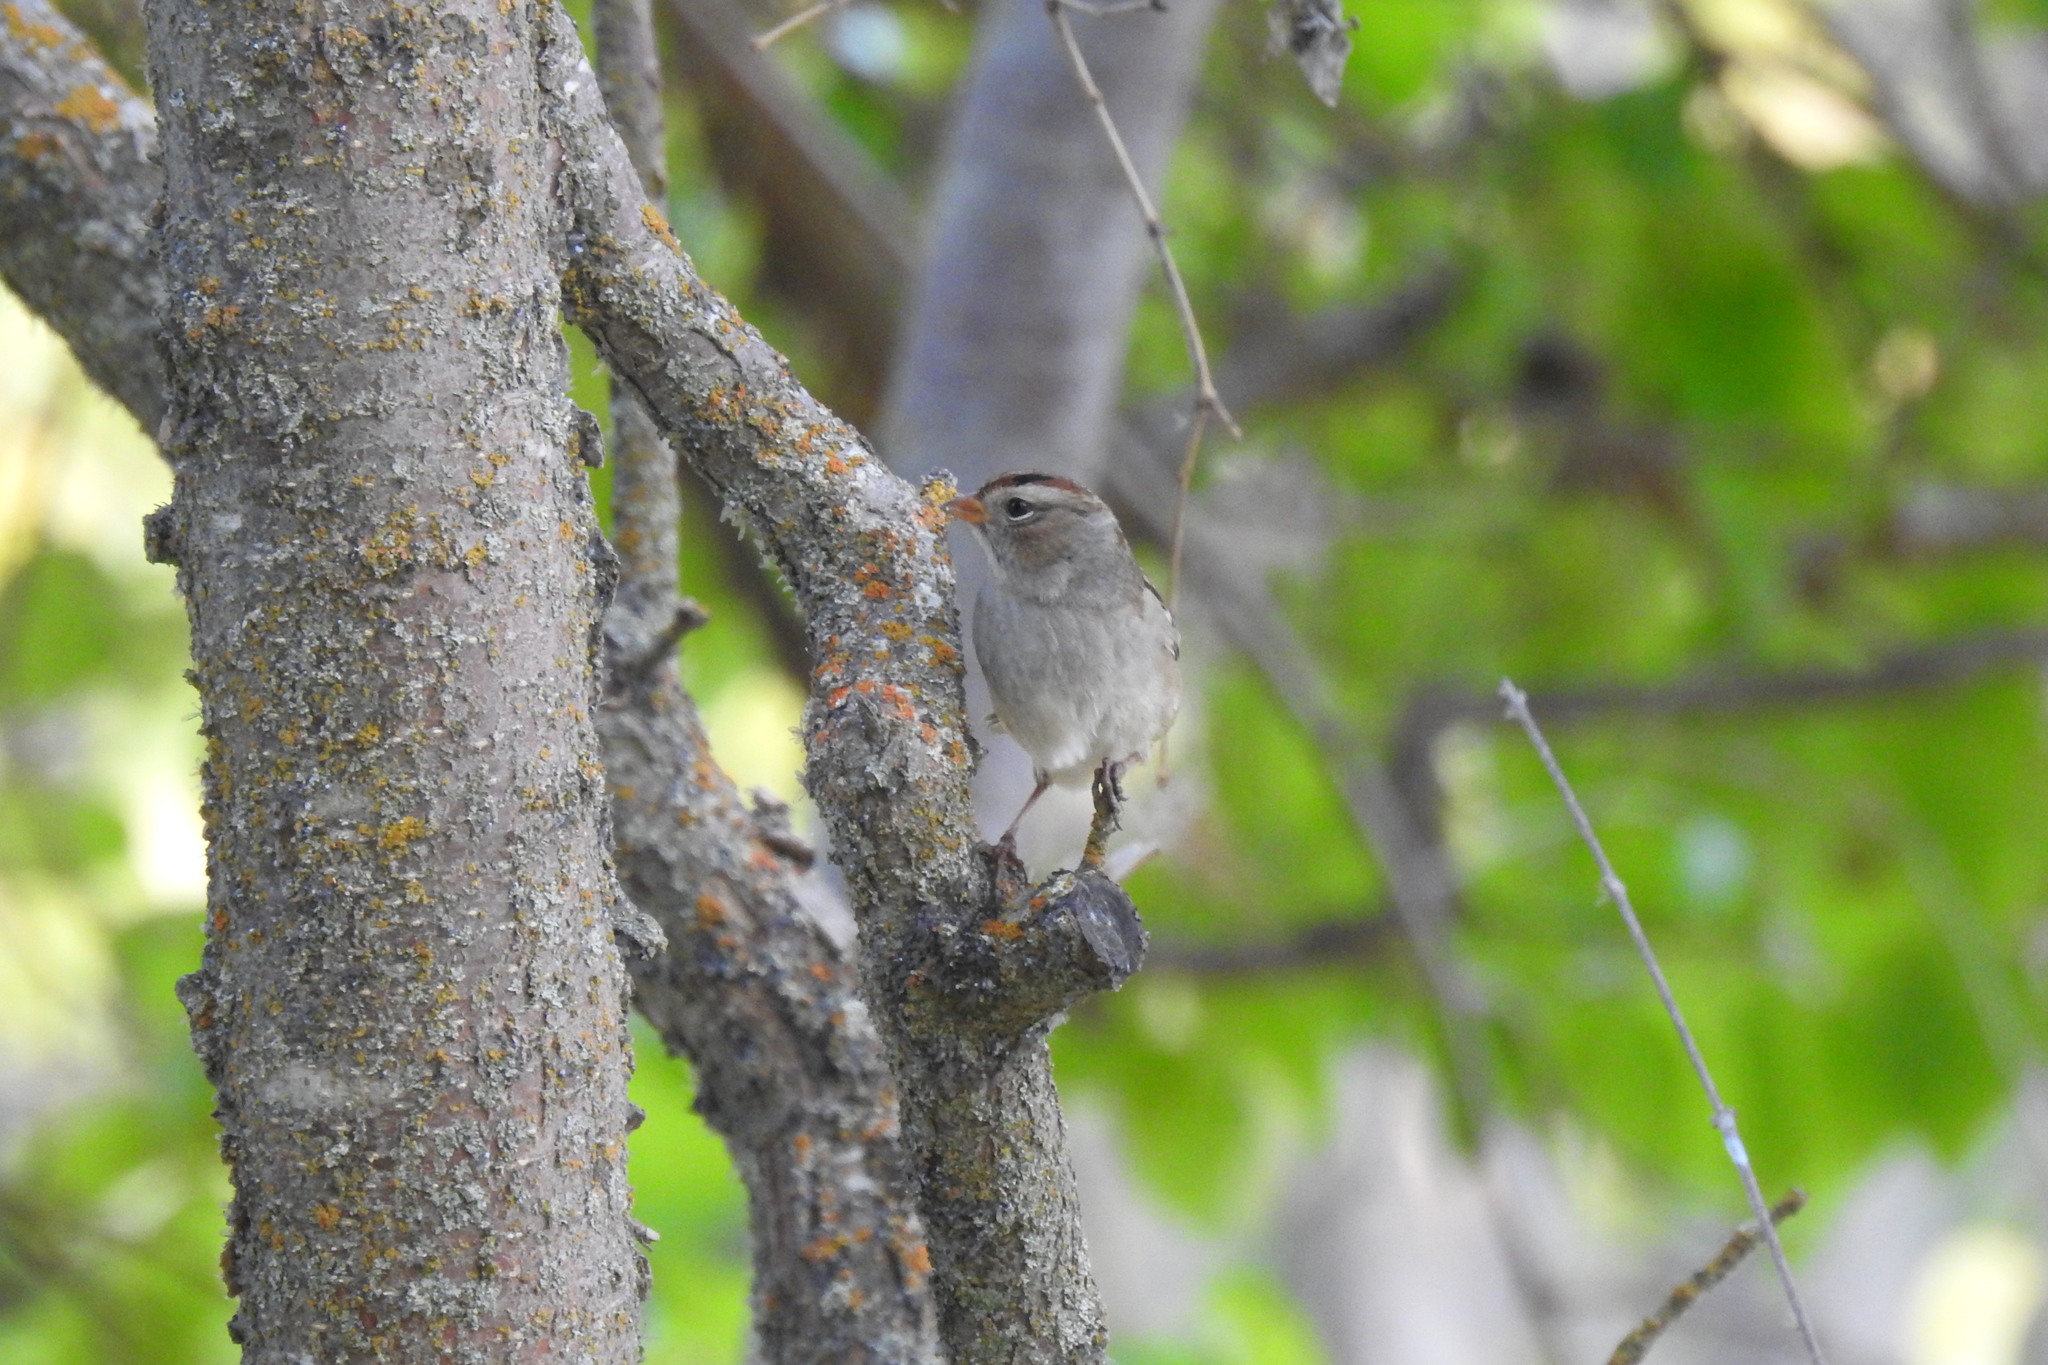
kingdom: Animalia
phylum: Chordata
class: Aves
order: Passeriformes
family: Passerellidae
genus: Zonotrichia
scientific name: Zonotrichia leucophrys
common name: White-crowned sparrow
